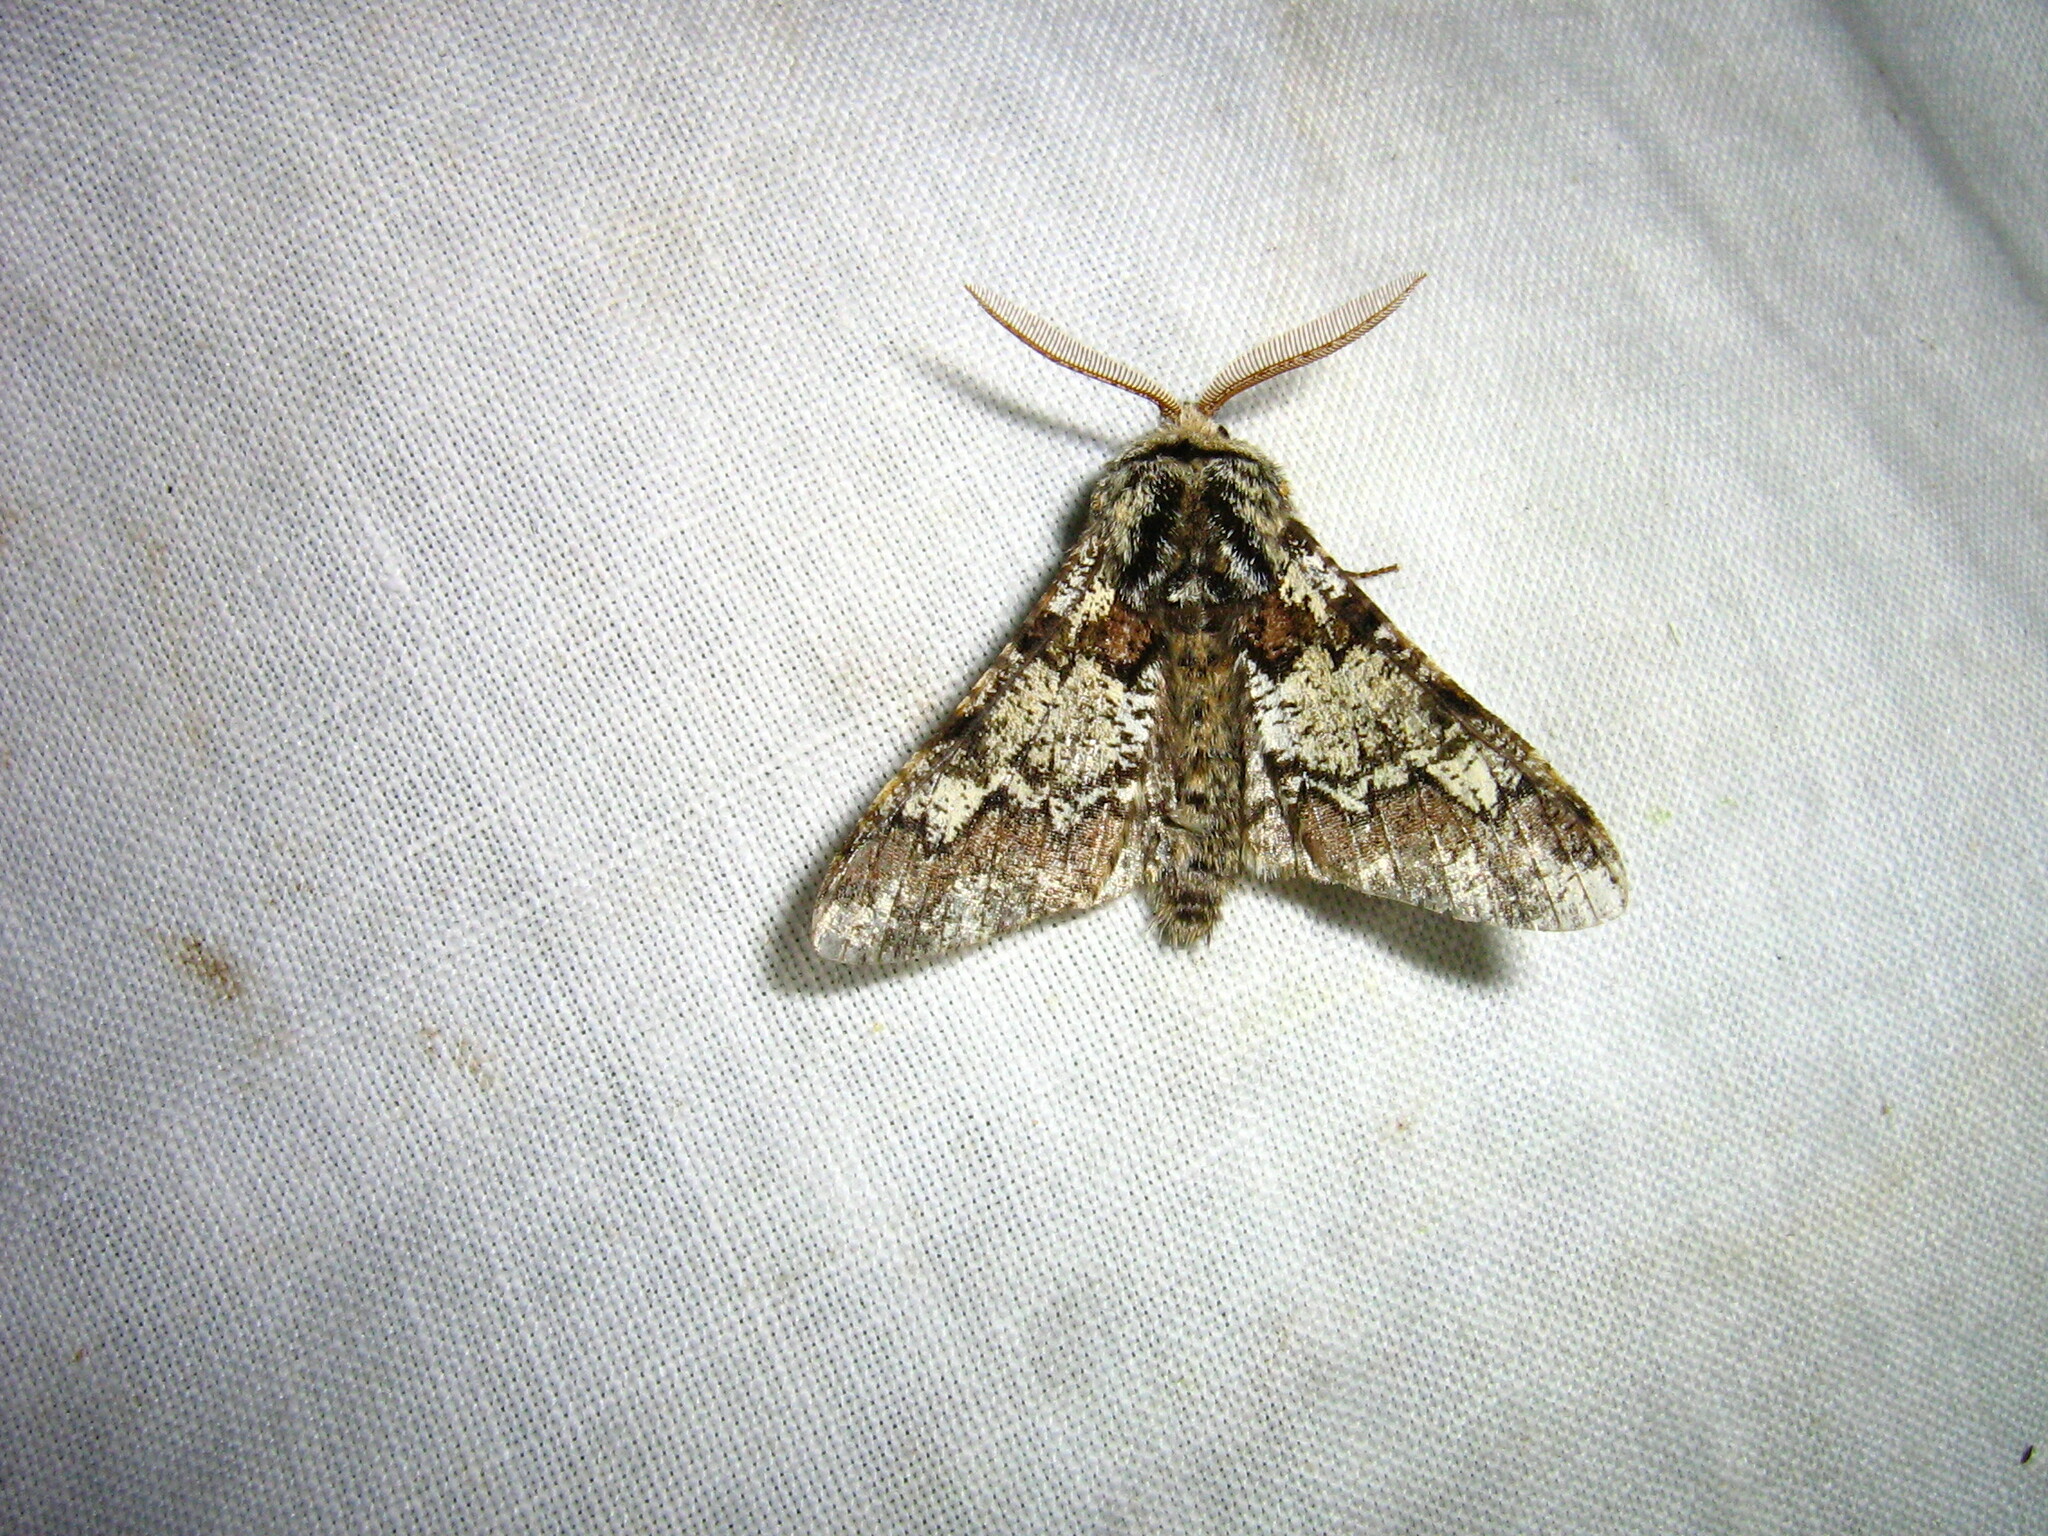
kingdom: Animalia
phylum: Arthropoda
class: Insecta
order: Lepidoptera
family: Geometridae
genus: Biston
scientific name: Biston strataria
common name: Oak beauty
